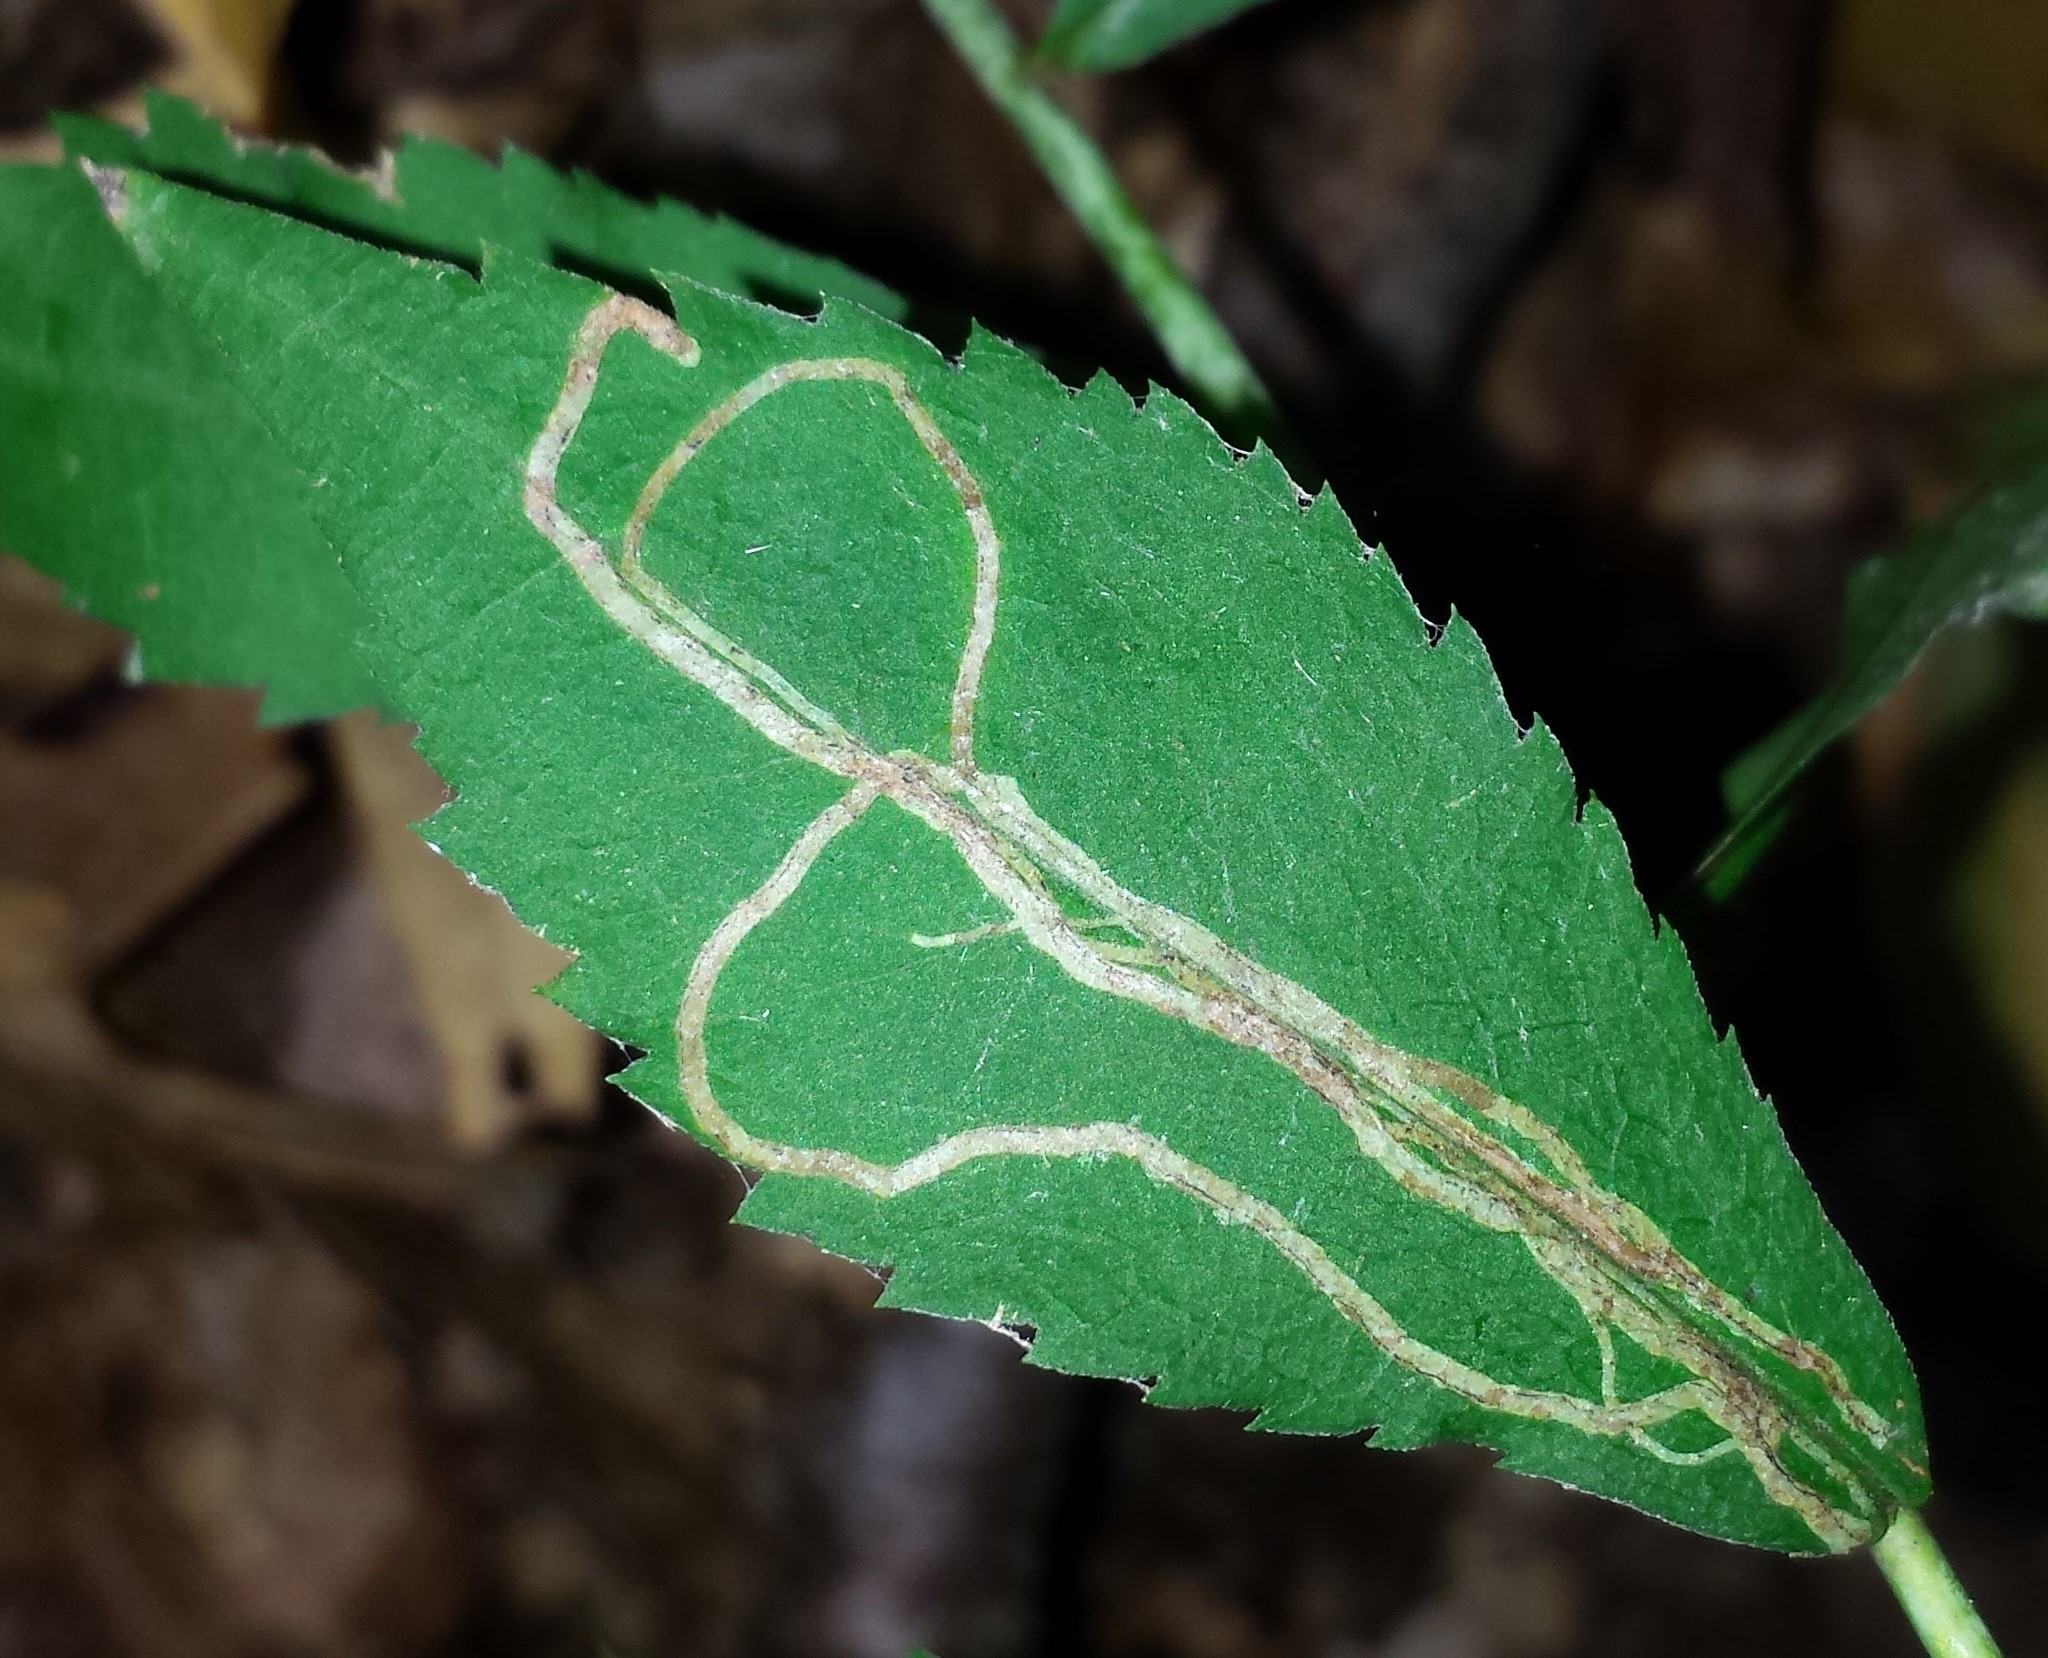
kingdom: Animalia
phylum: Arthropoda
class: Insecta
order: Diptera
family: Agromyzidae
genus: Ophiomyia
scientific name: Ophiomyia maura
